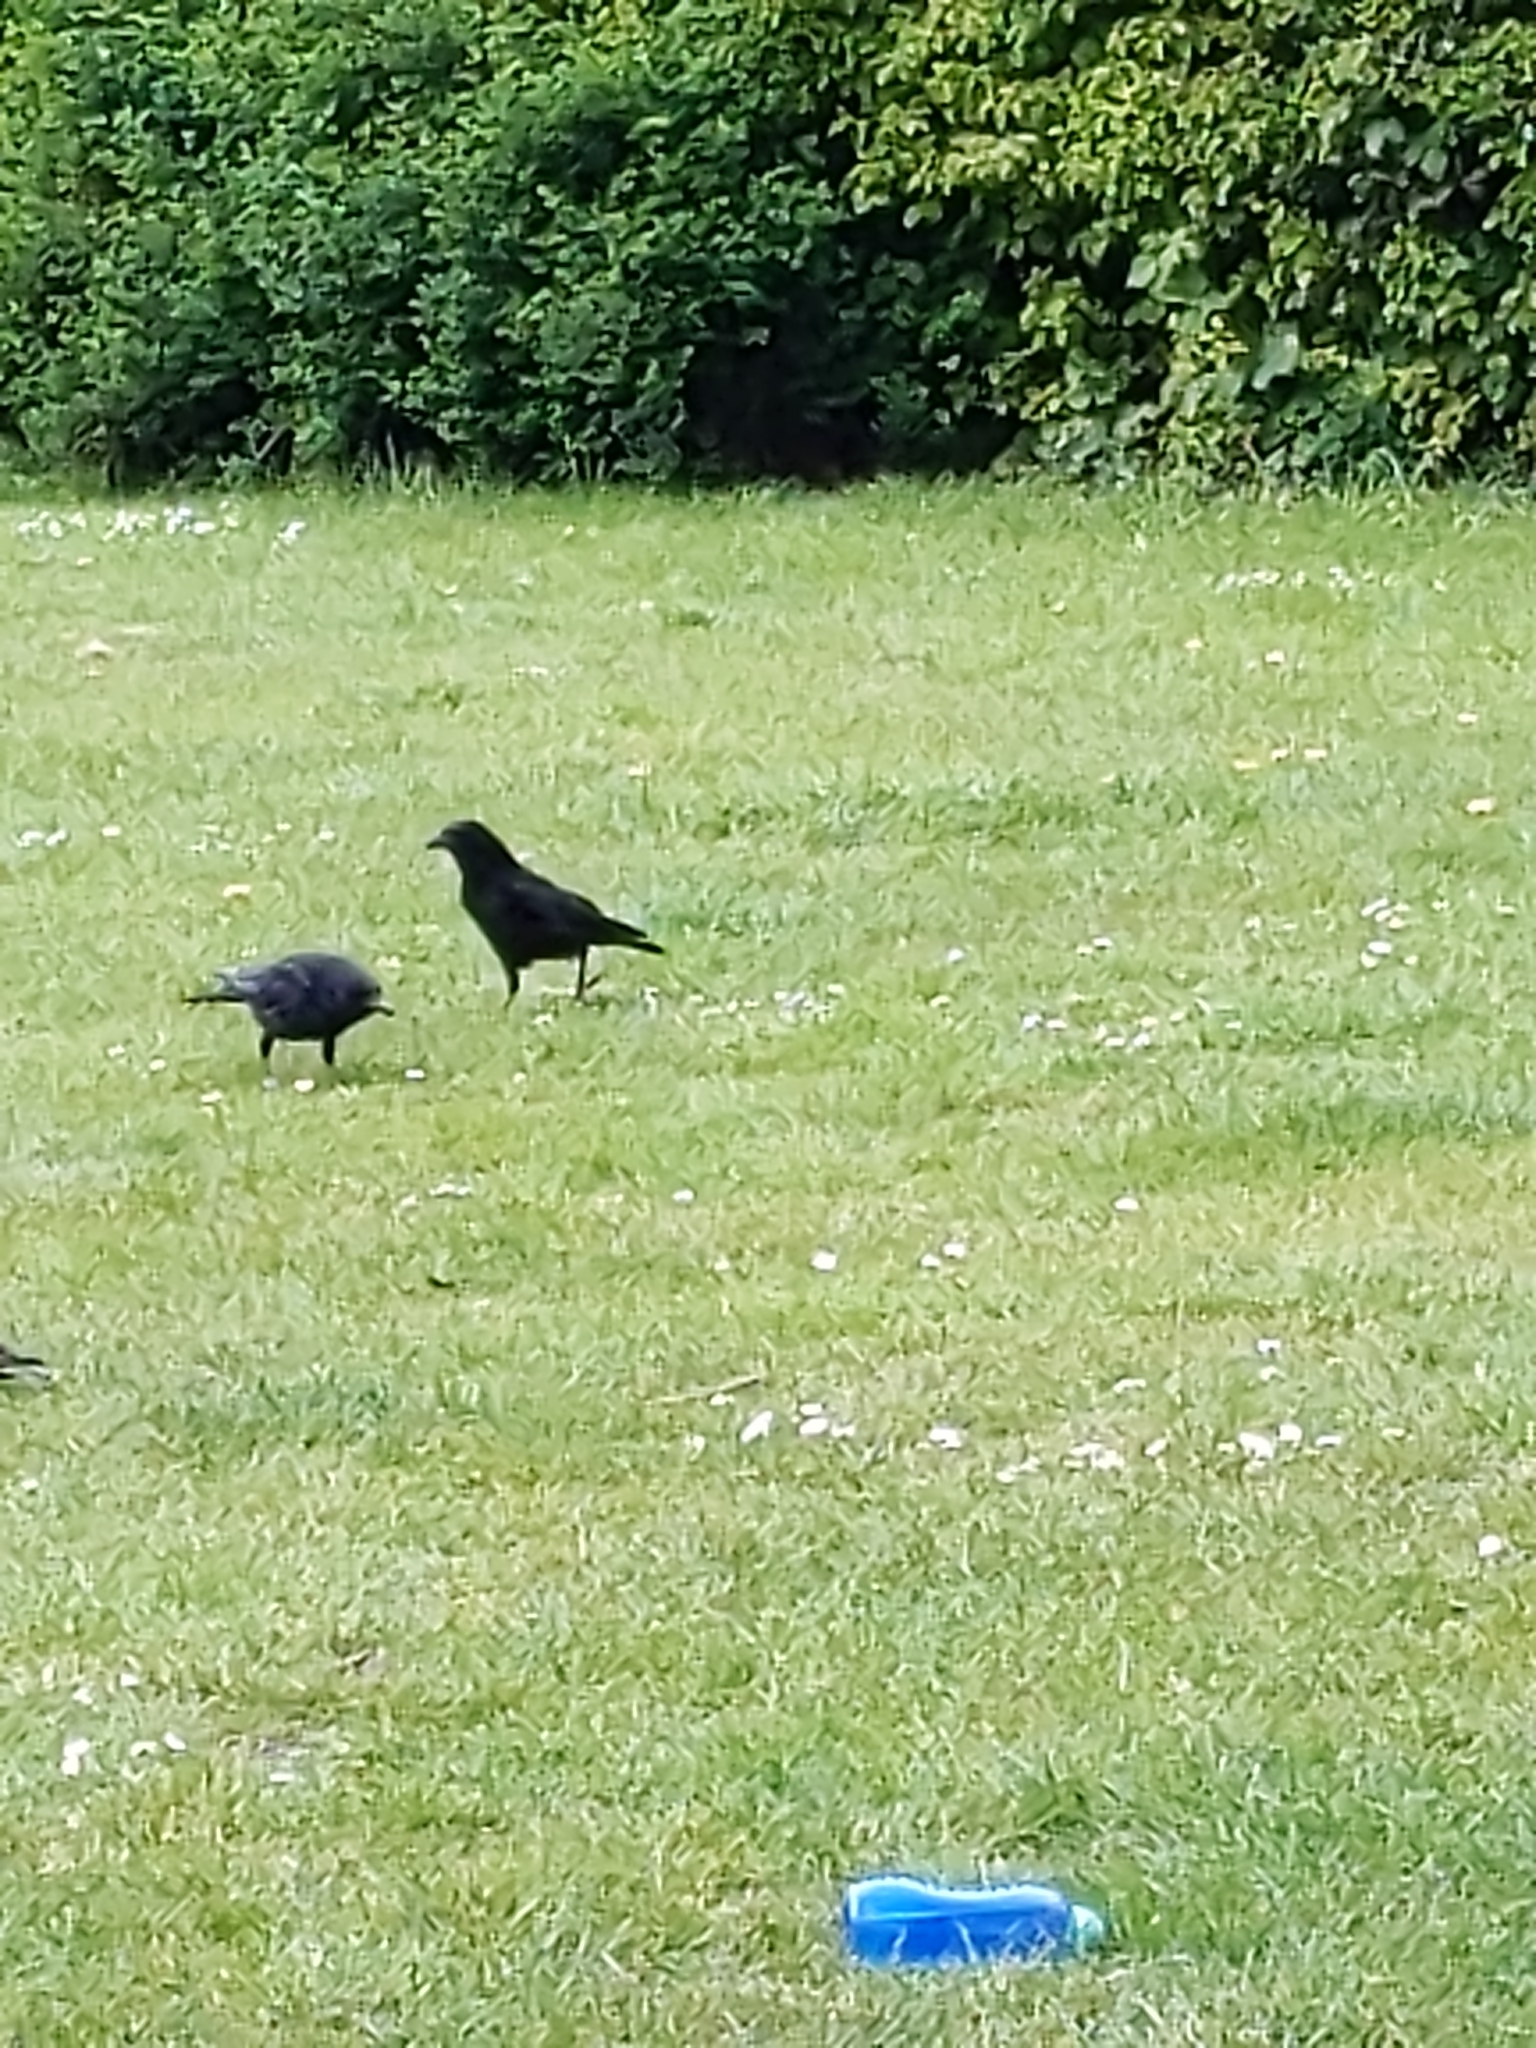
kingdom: Animalia
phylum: Chordata
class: Aves
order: Passeriformes
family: Corvidae
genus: Corvus
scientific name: Corvus corone
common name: Carrion crow
